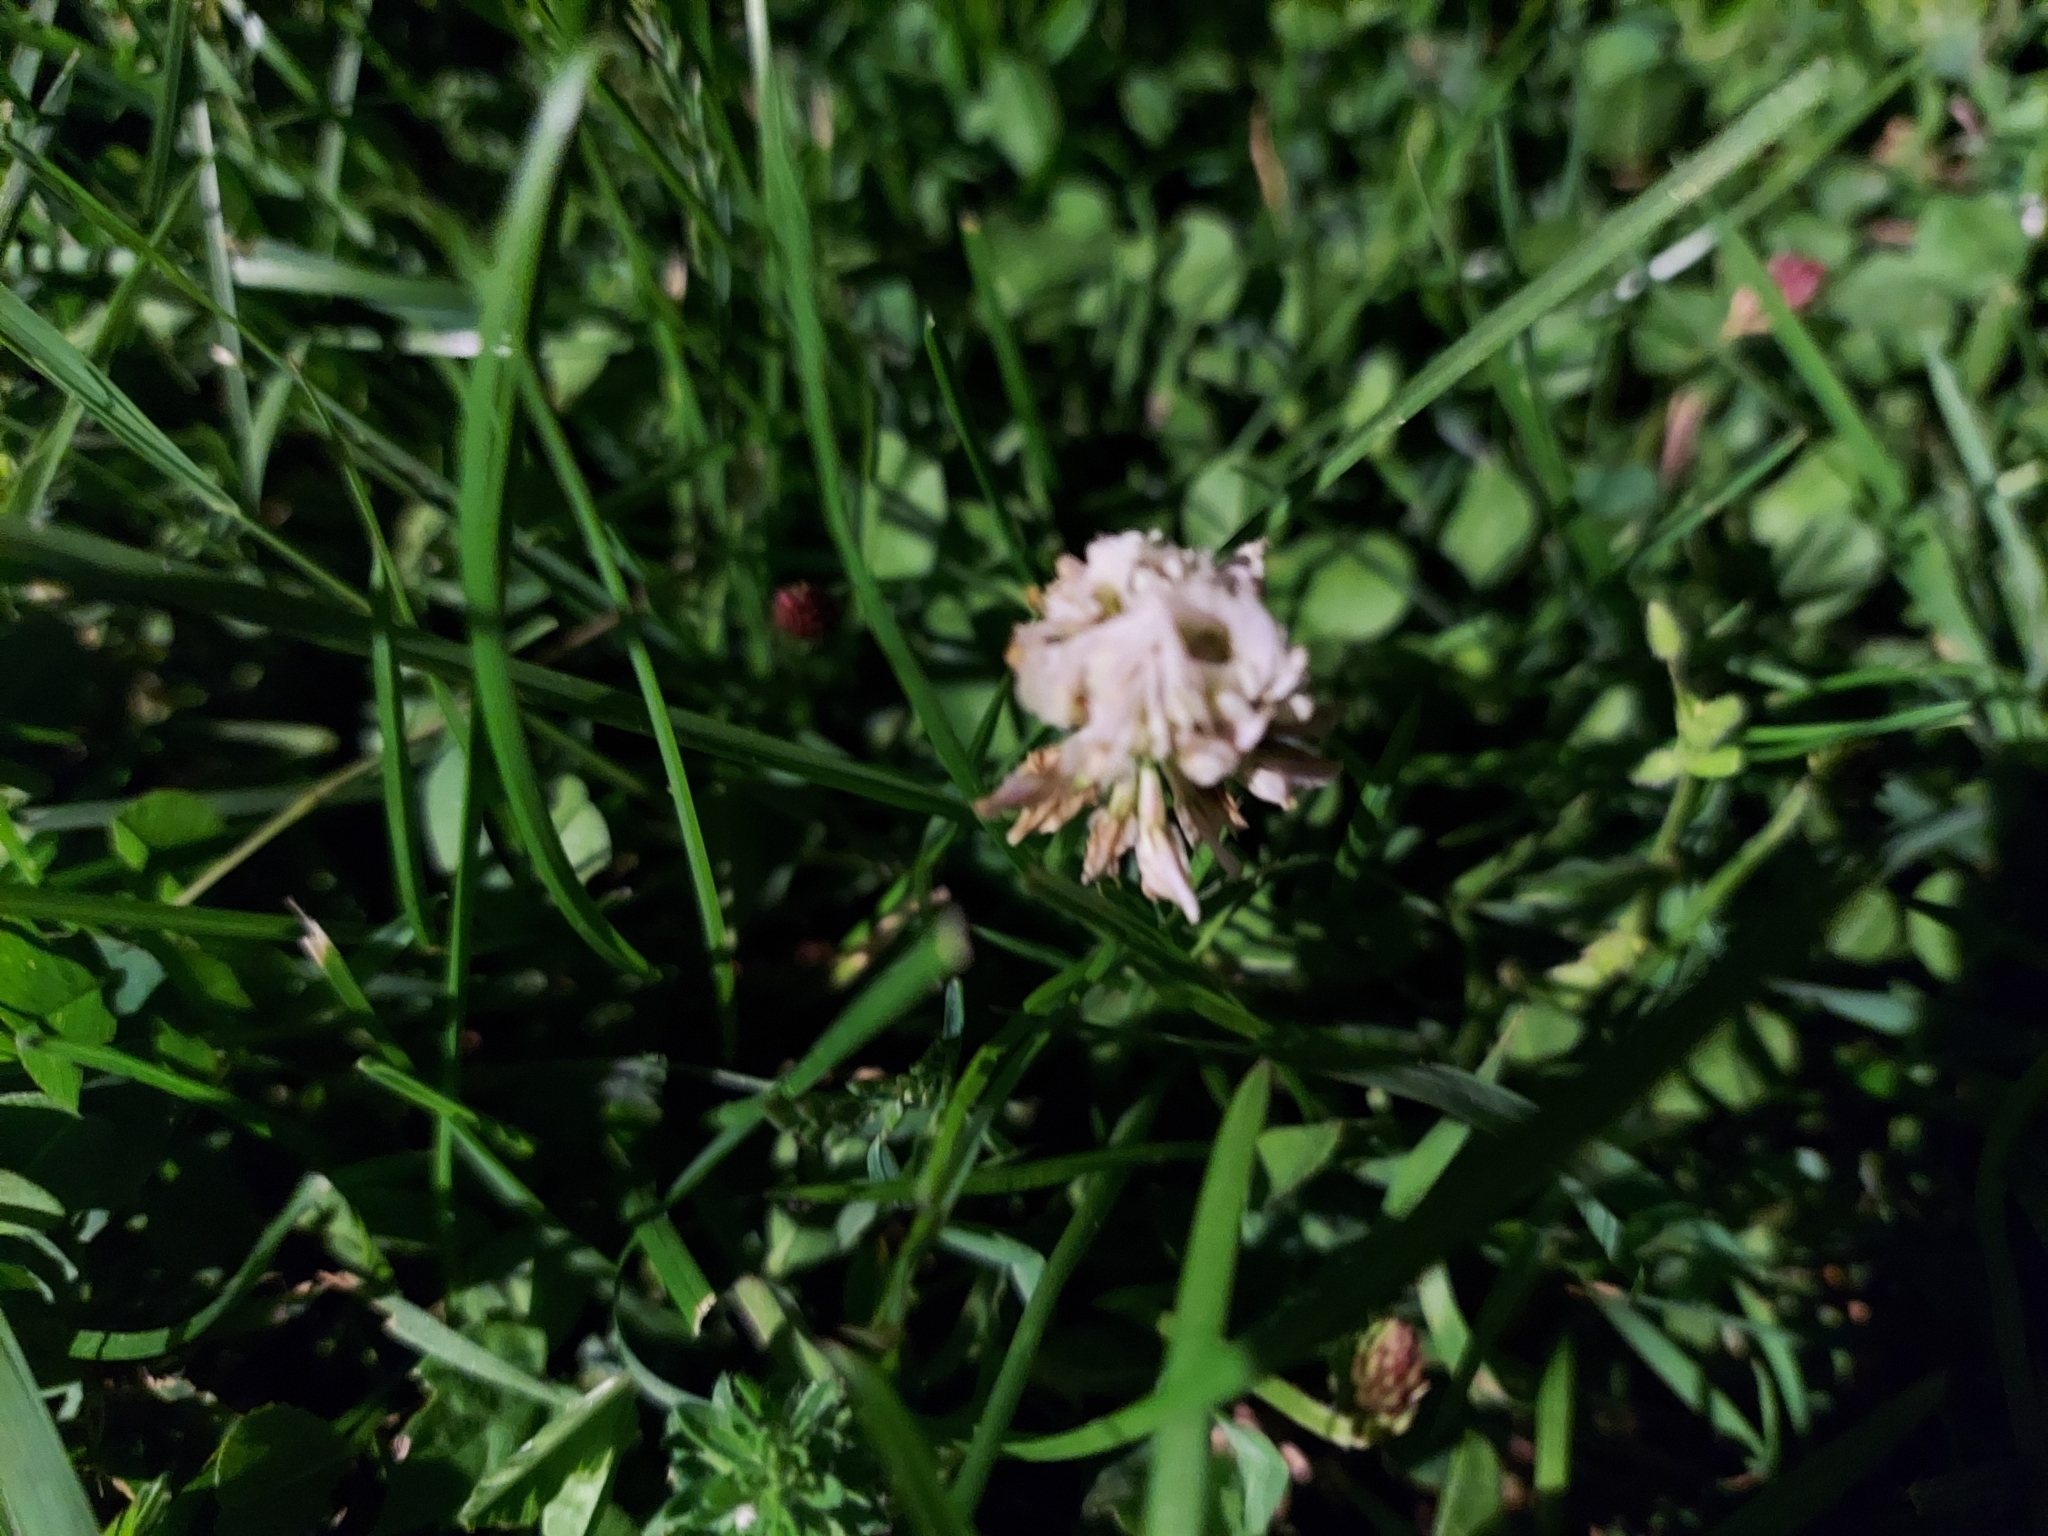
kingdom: Plantae
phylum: Tracheophyta
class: Magnoliopsida
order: Fabales
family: Fabaceae
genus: Trifolium
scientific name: Trifolium repens
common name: White clover
